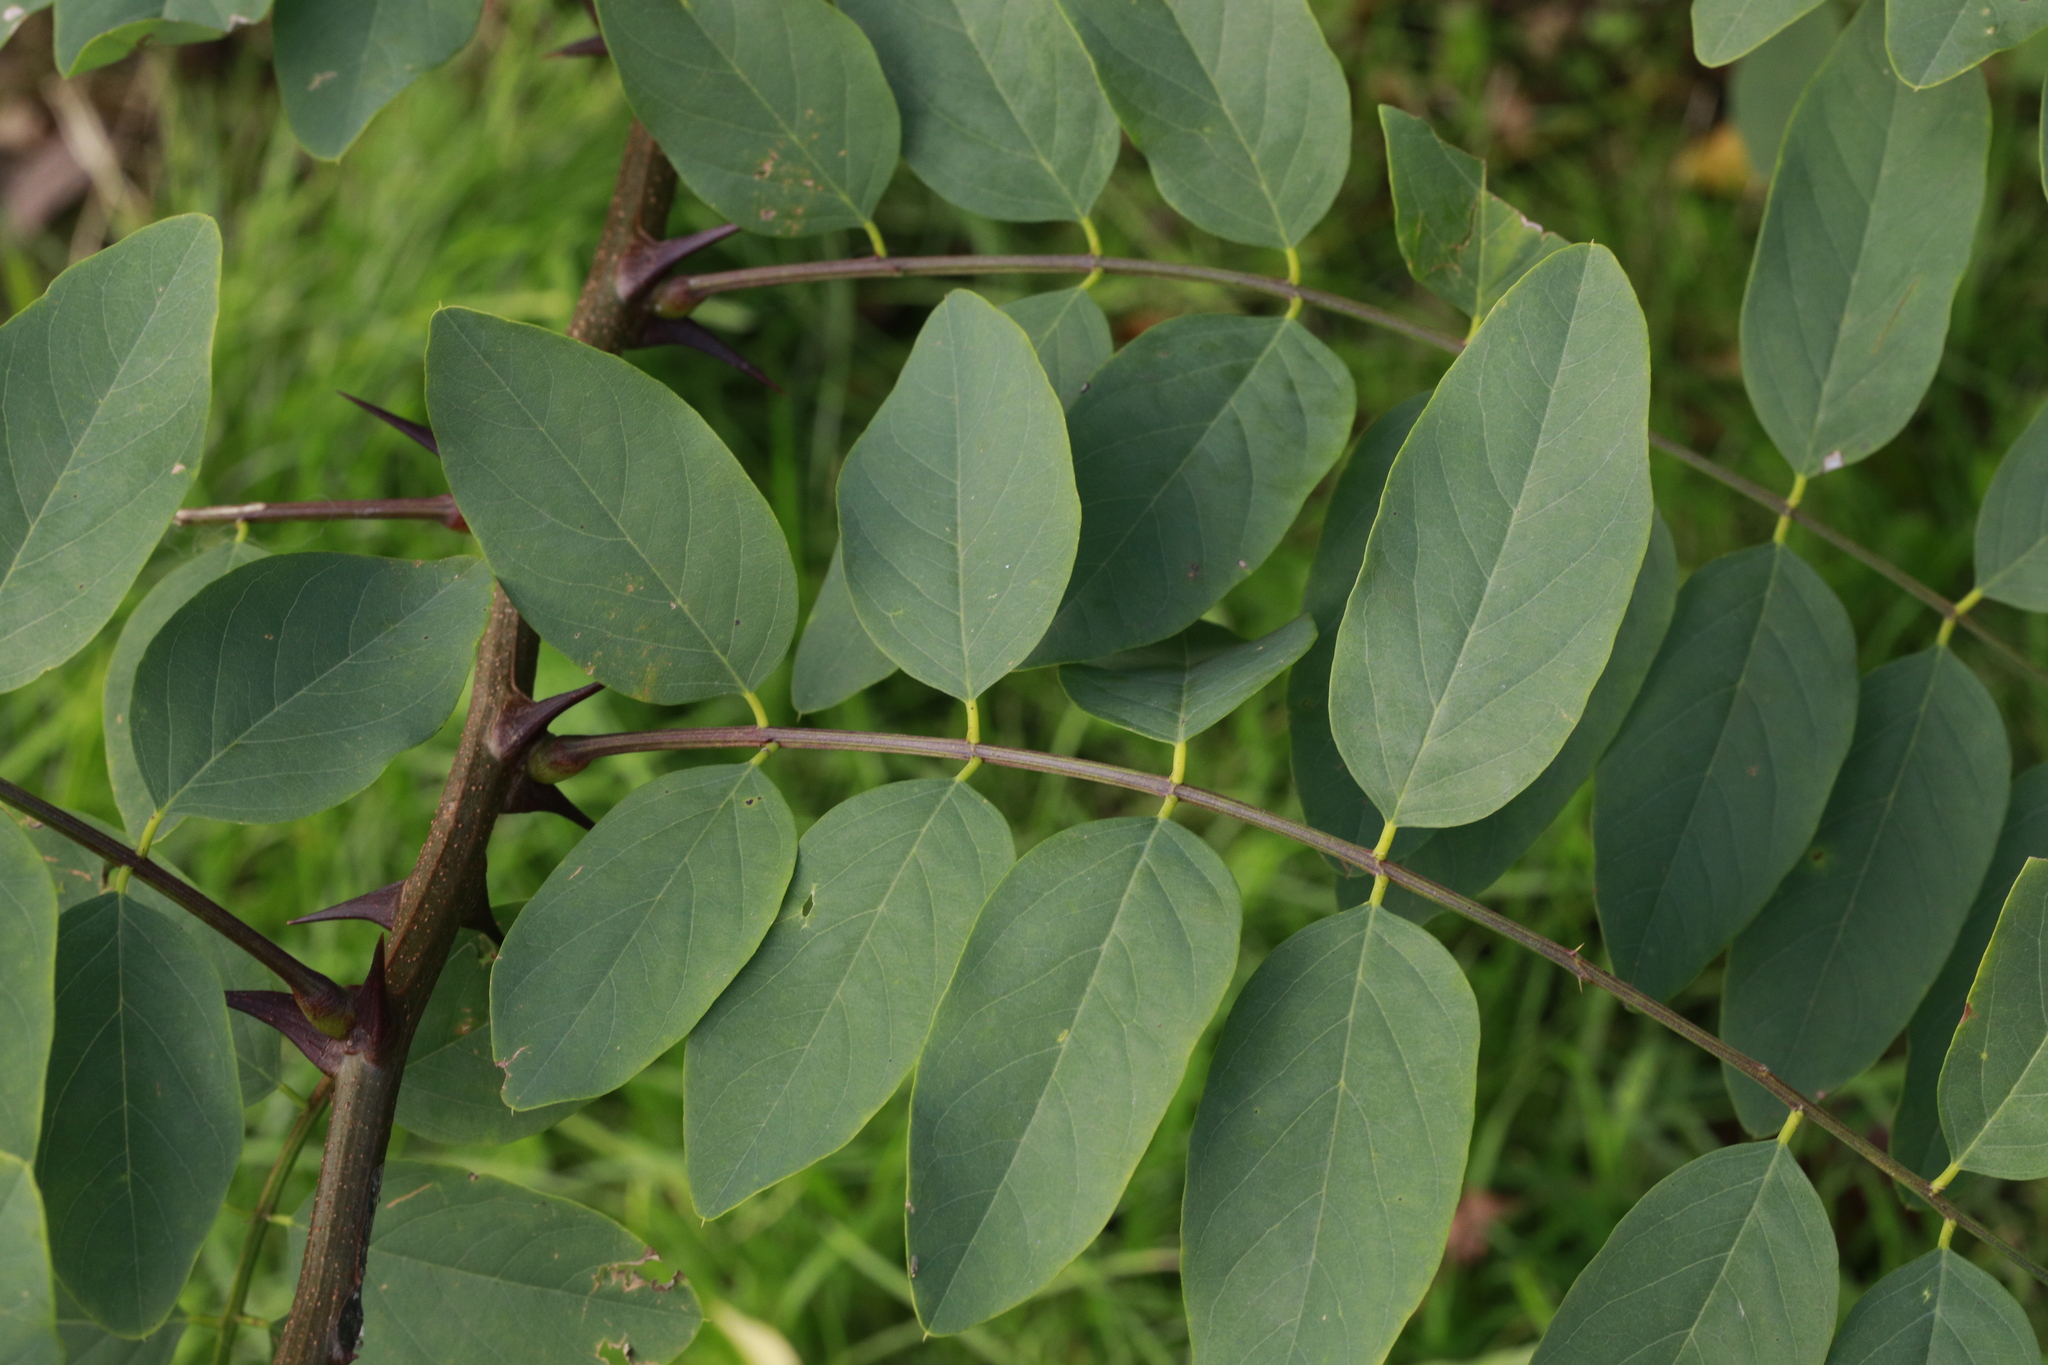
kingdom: Plantae
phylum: Tracheophyta
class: Magnoliopsida
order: Fabales
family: Fabaceae
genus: Robinia
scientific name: Robinia pseudoacacia
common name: Black locust
